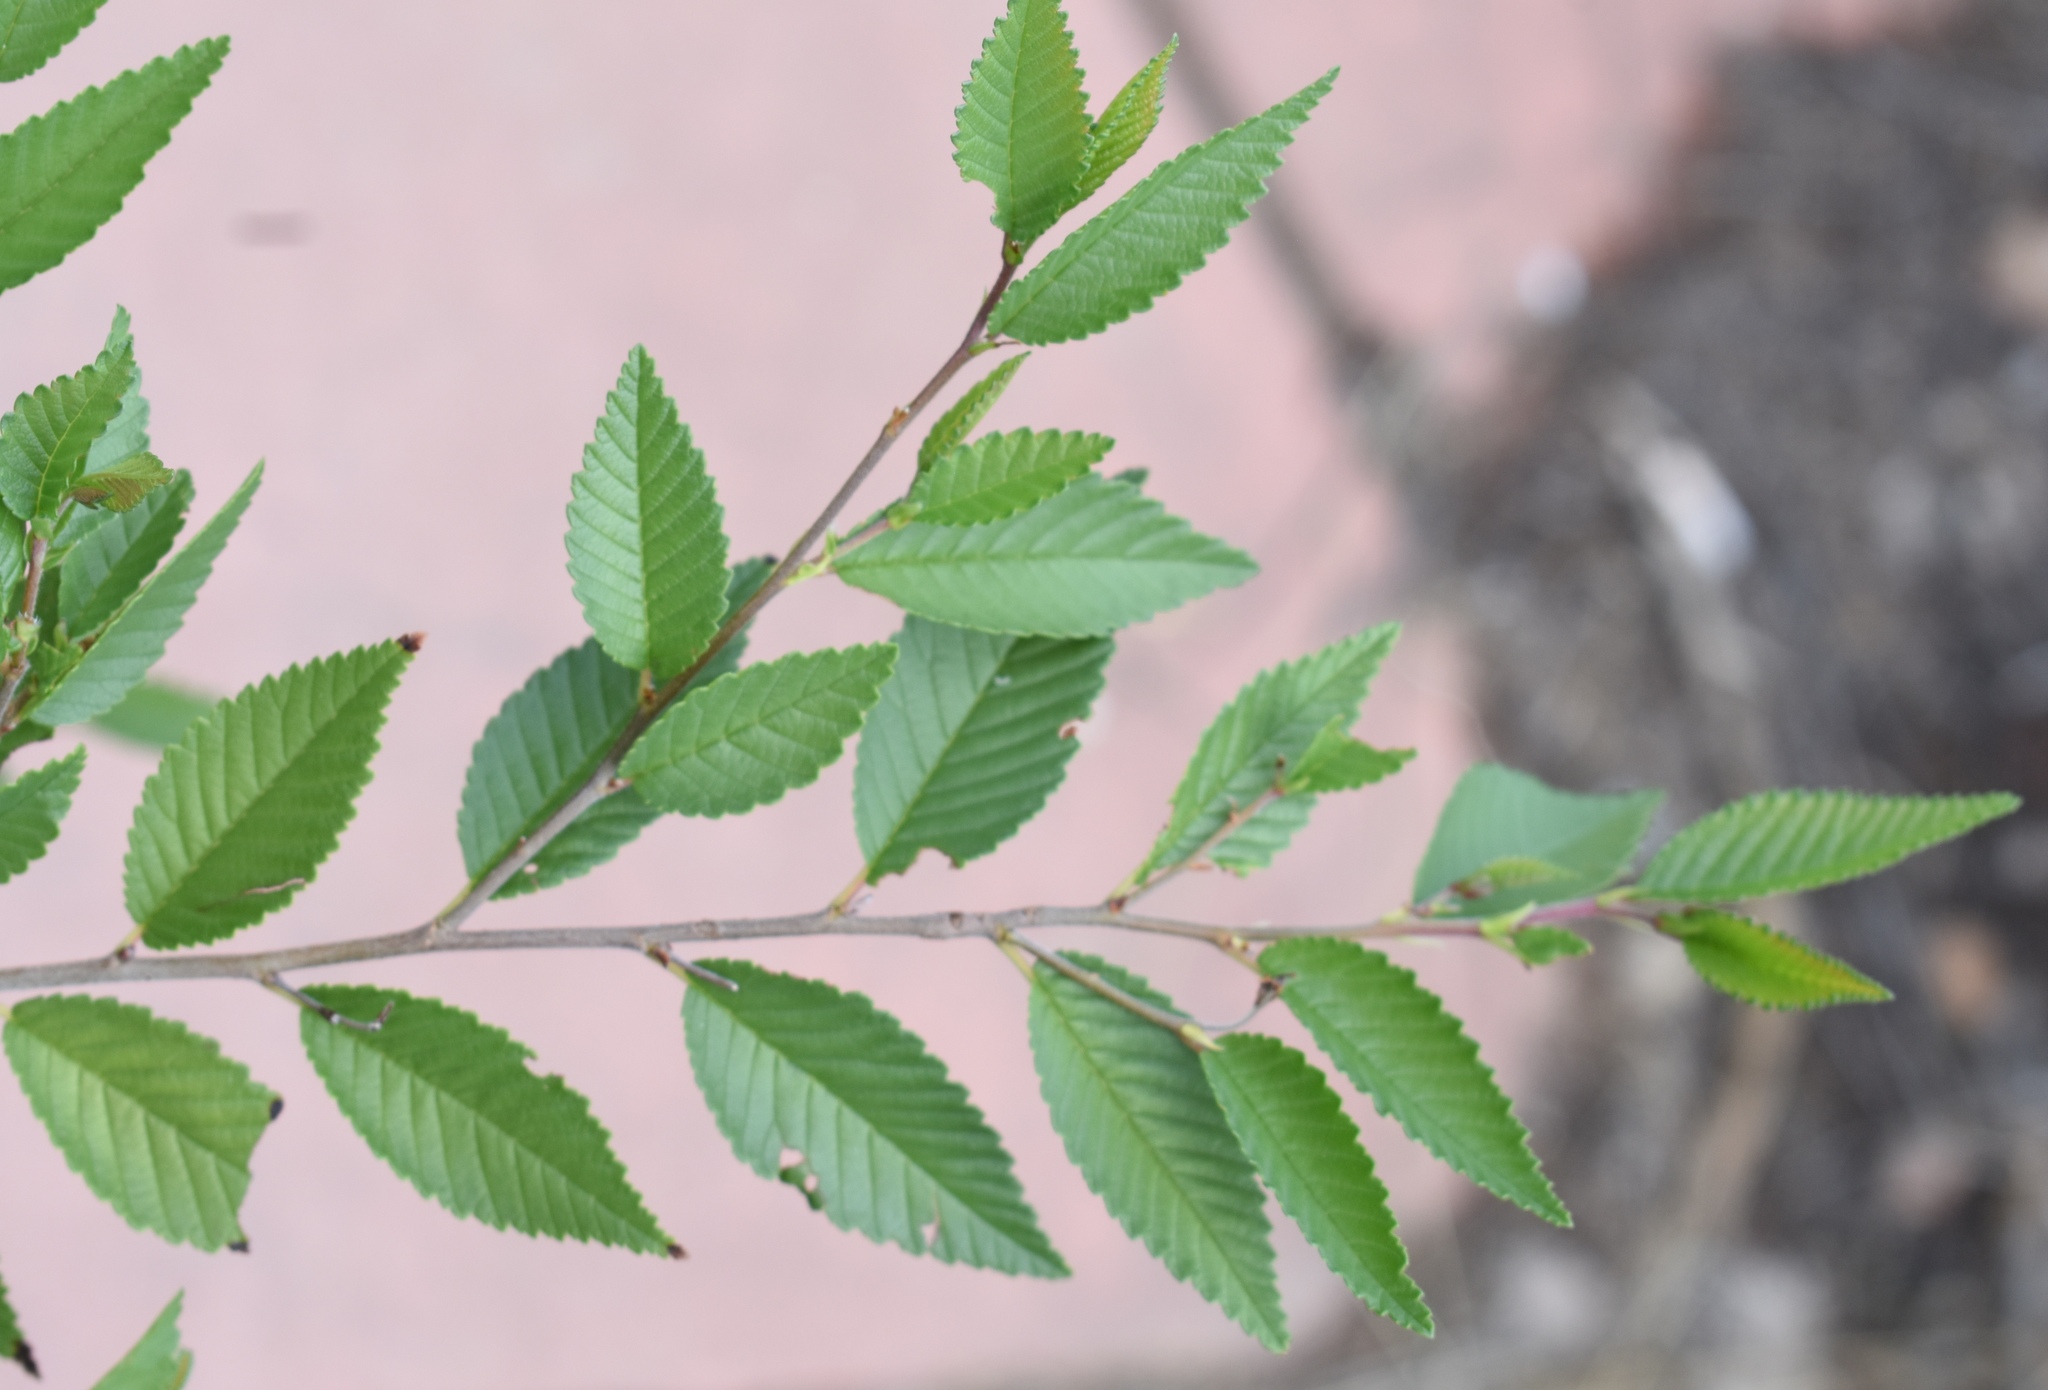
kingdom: Plantae
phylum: Tracheophyta
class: Magnoliopsida
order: Rosales
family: Ulmaceae
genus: Ulmus
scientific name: Ulmus pumila
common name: Siberian elm
